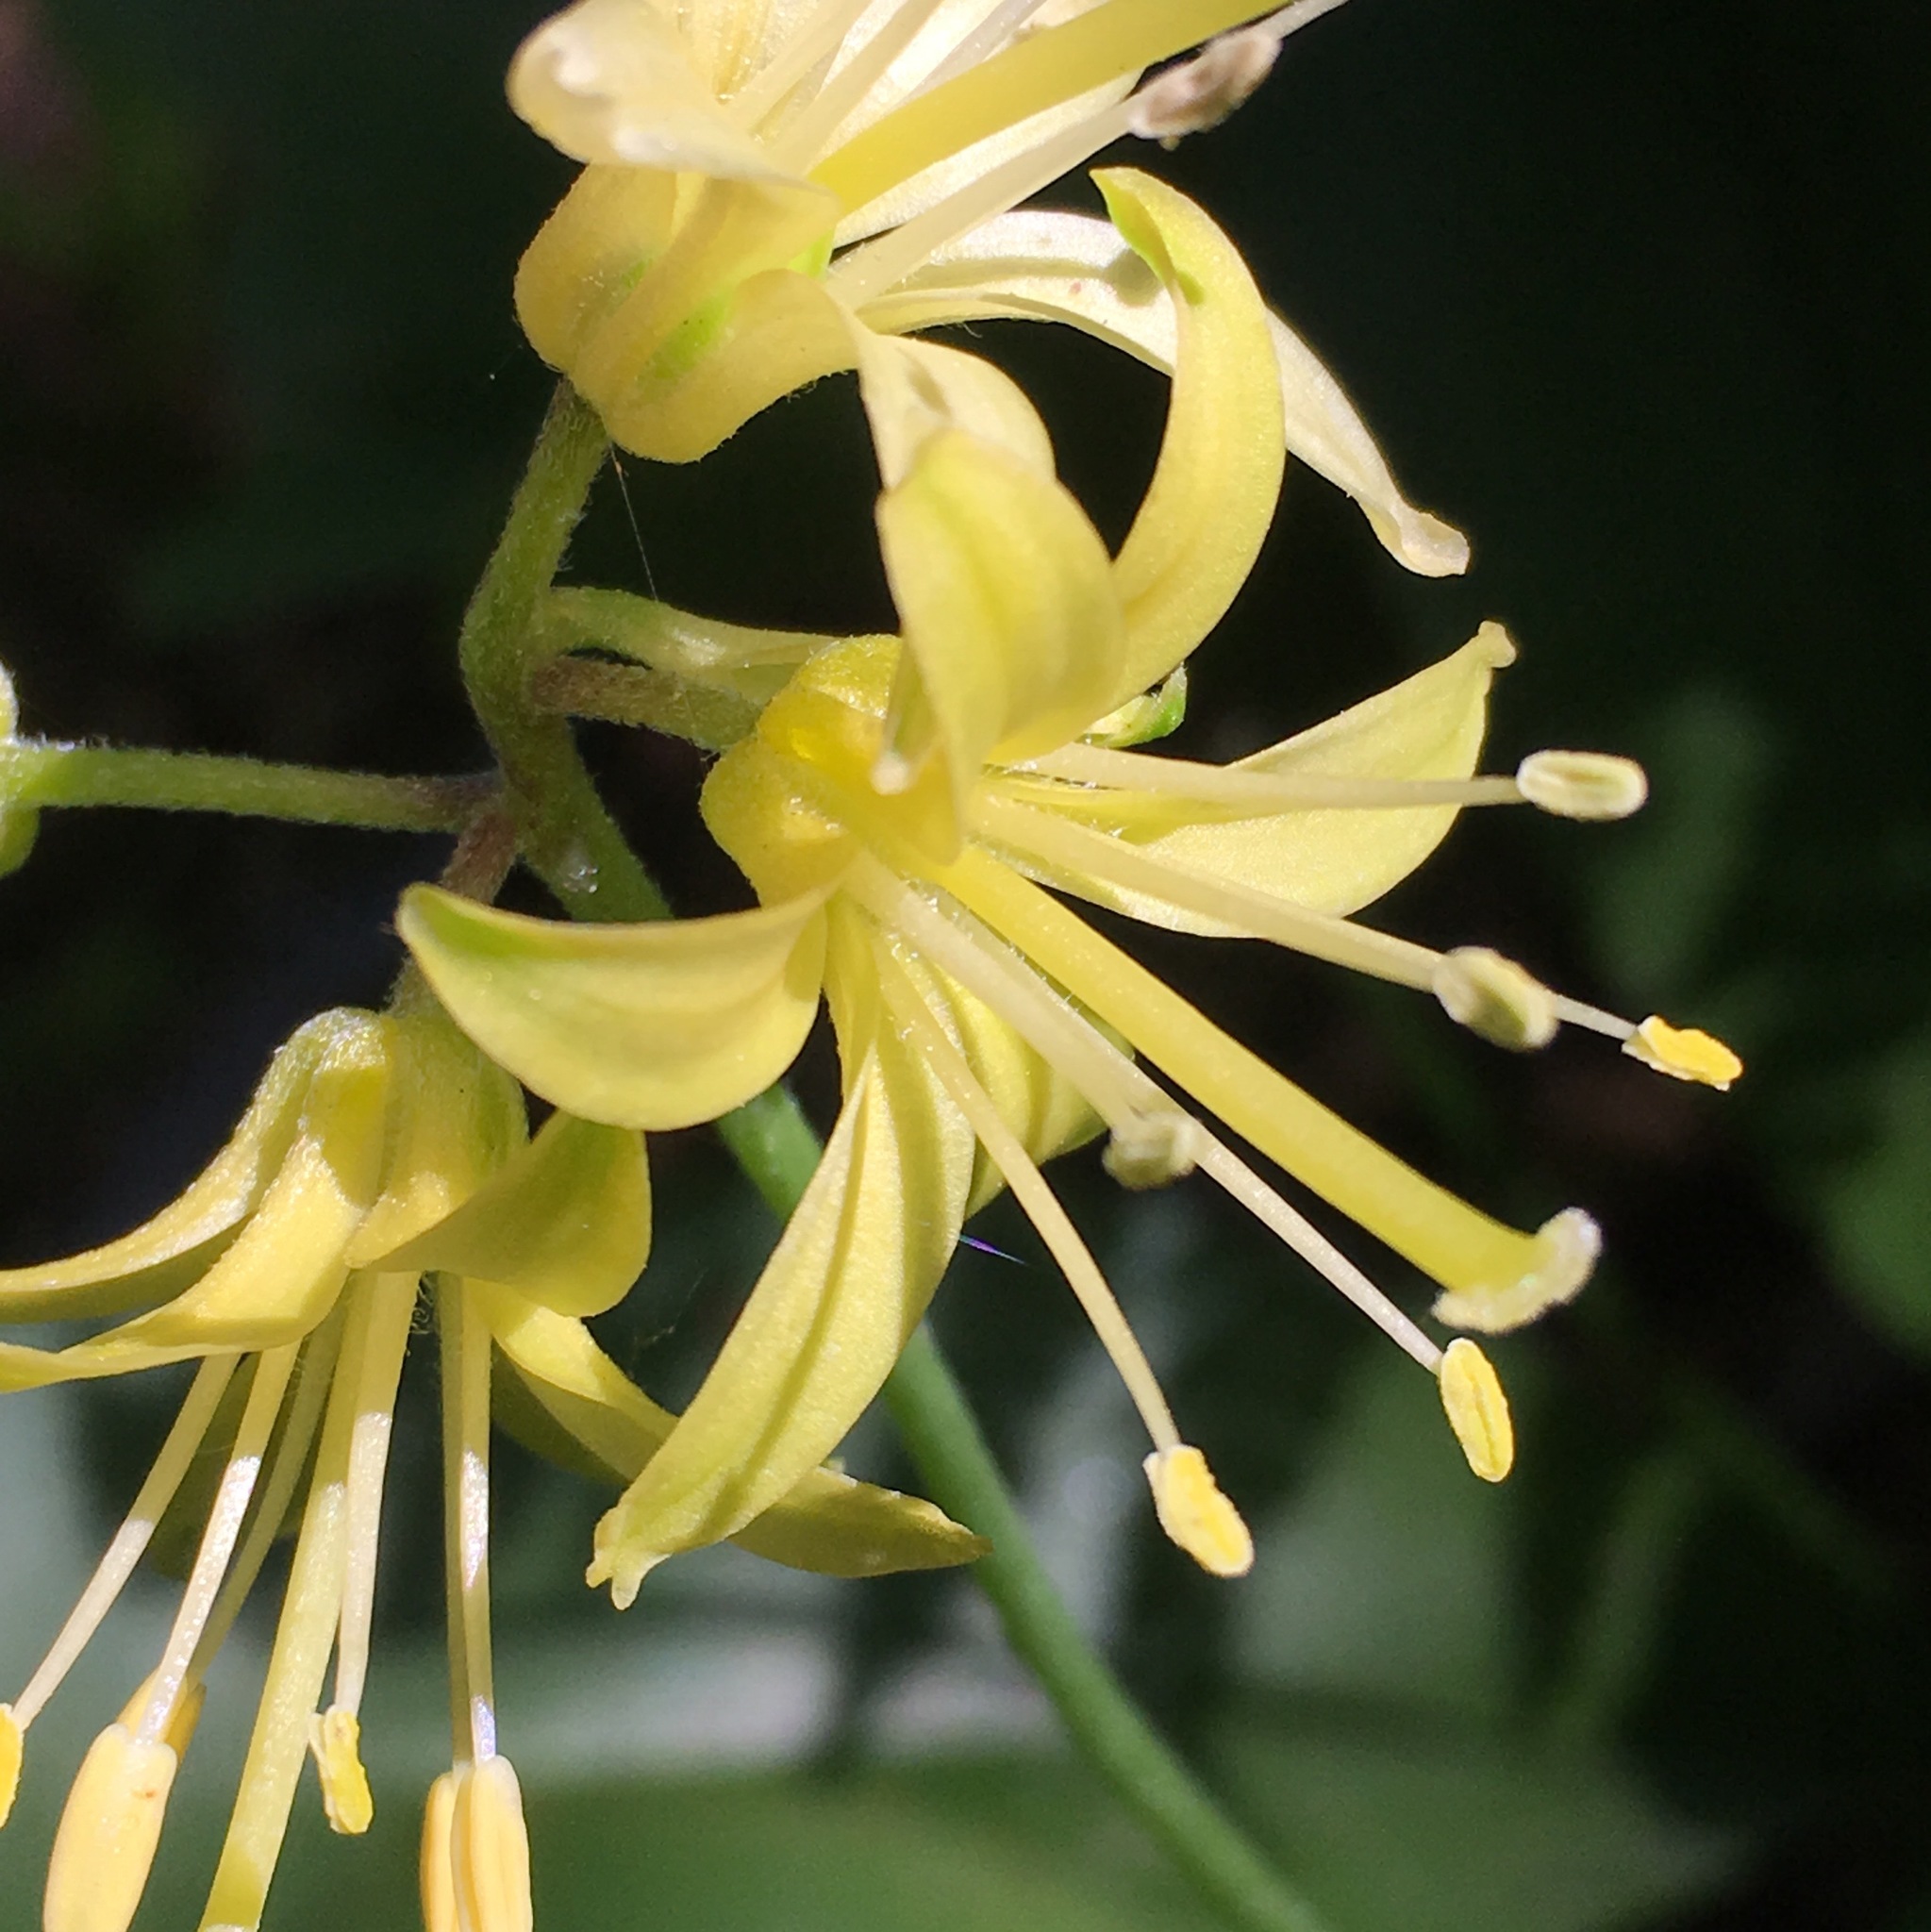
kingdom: Plantae
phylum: Tracheophyta
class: Liliopsida
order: Liliales
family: Liliaceae
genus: Clintonia
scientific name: Clintonia borealis
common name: Yellow clintonia
